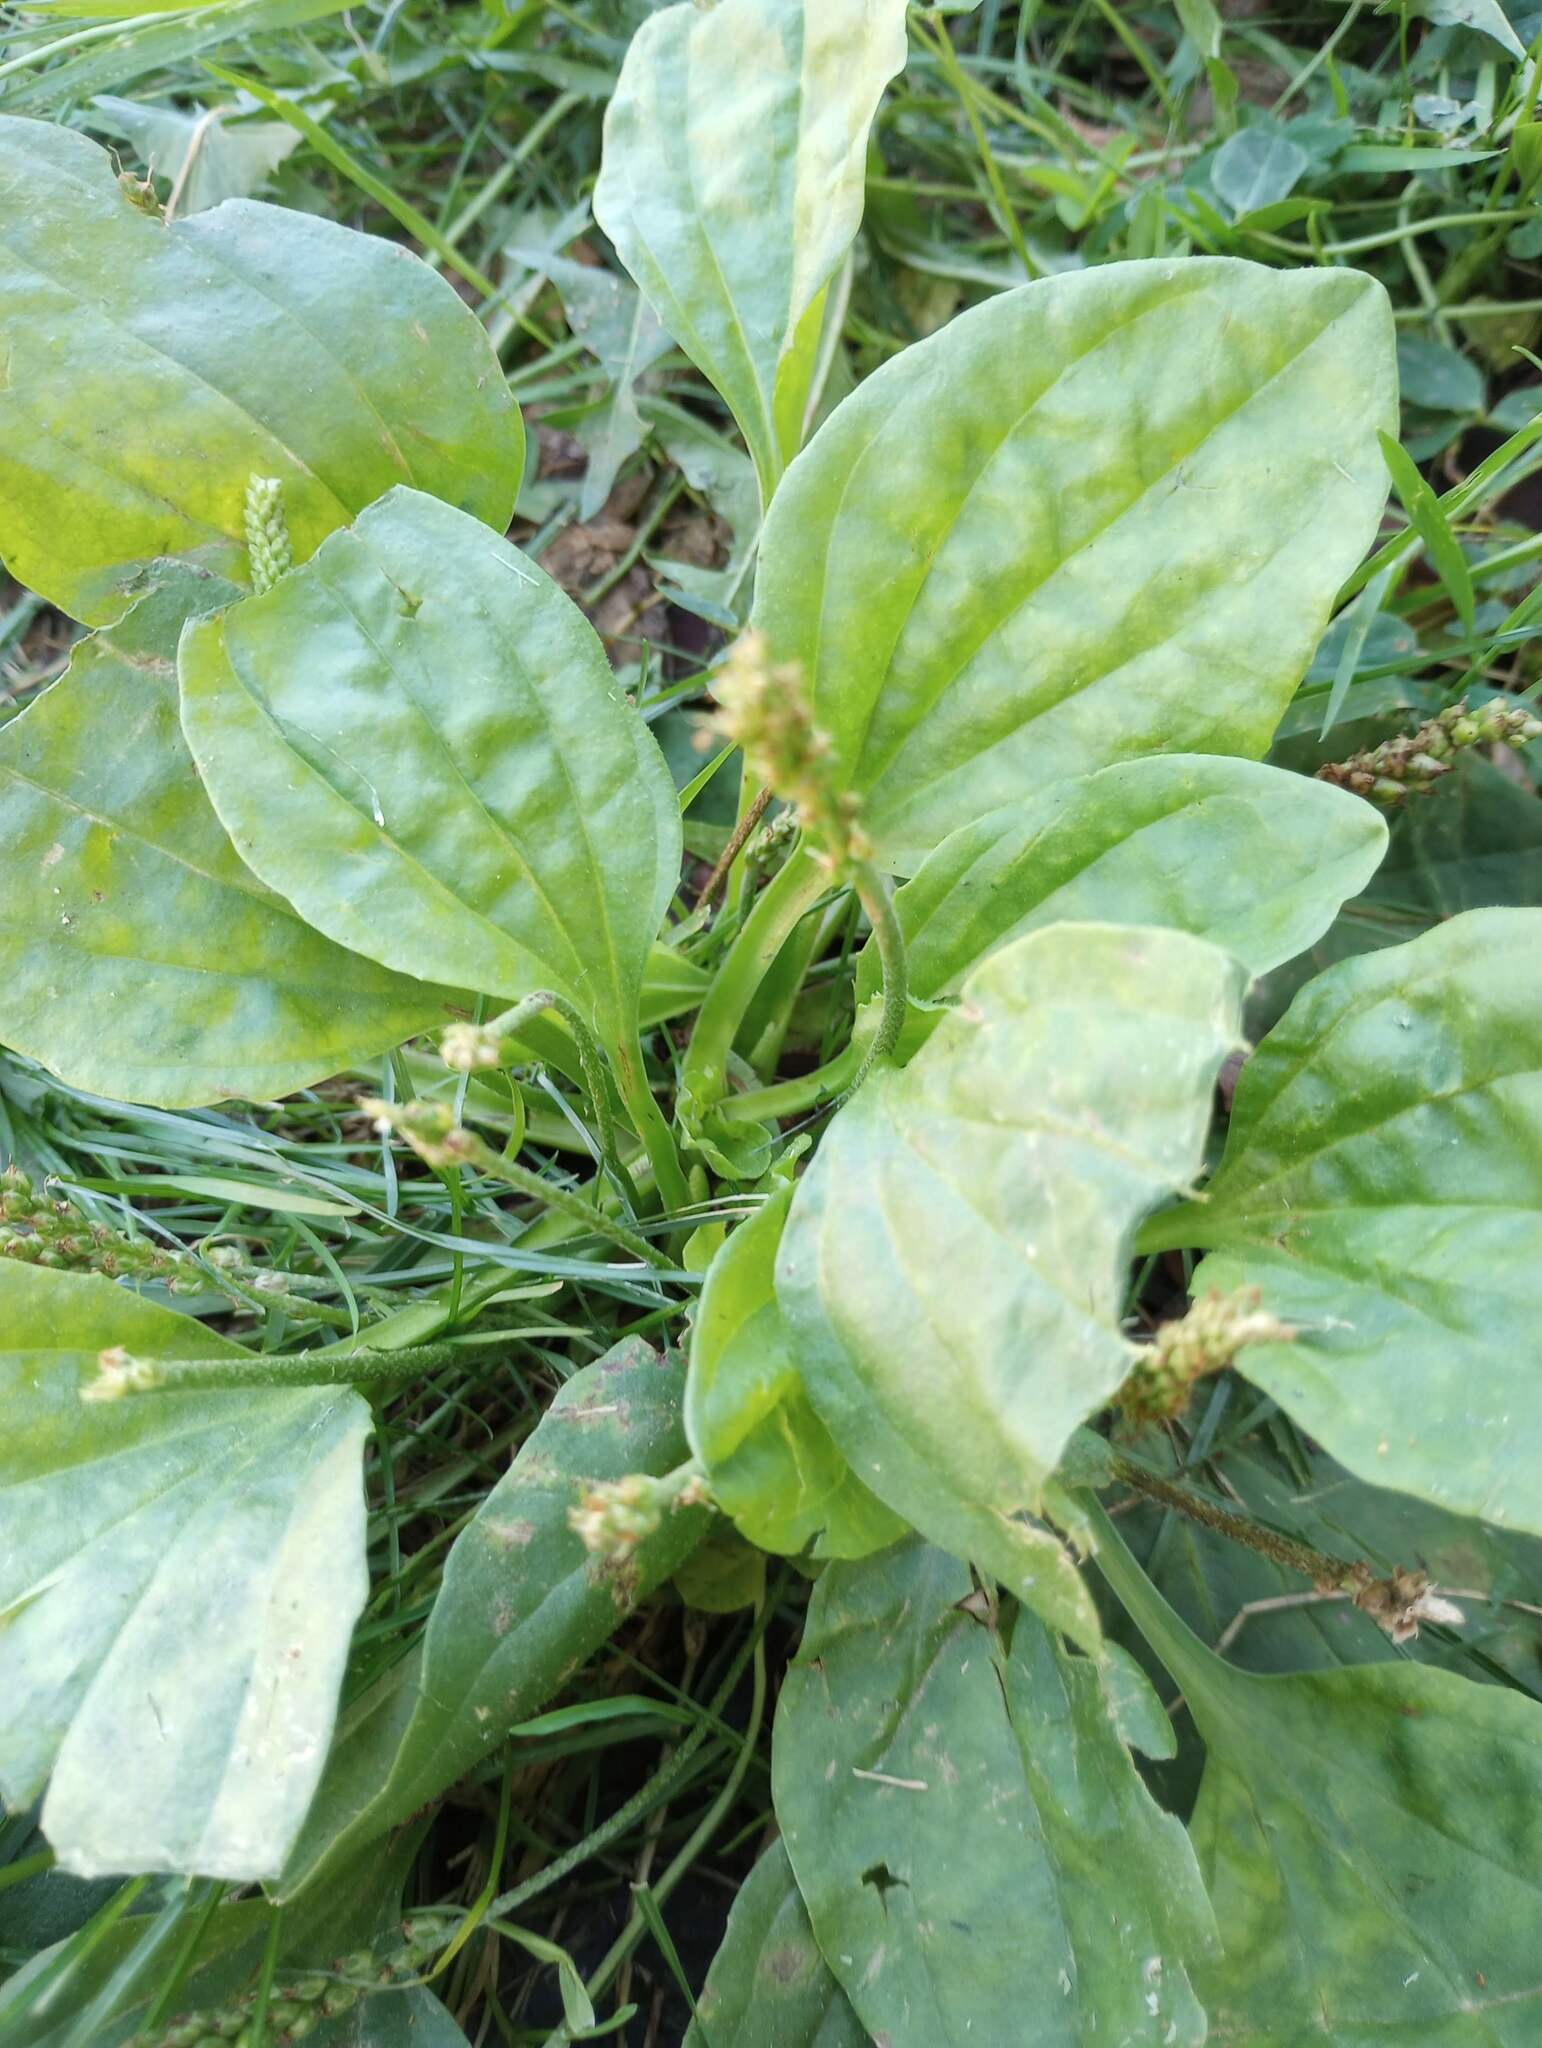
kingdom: Plantae
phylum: Tracheophyta
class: Magnoliopsida
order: Lamiales
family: Plantaginaceae
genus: Plantago
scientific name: Plantago major
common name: Common plantain
